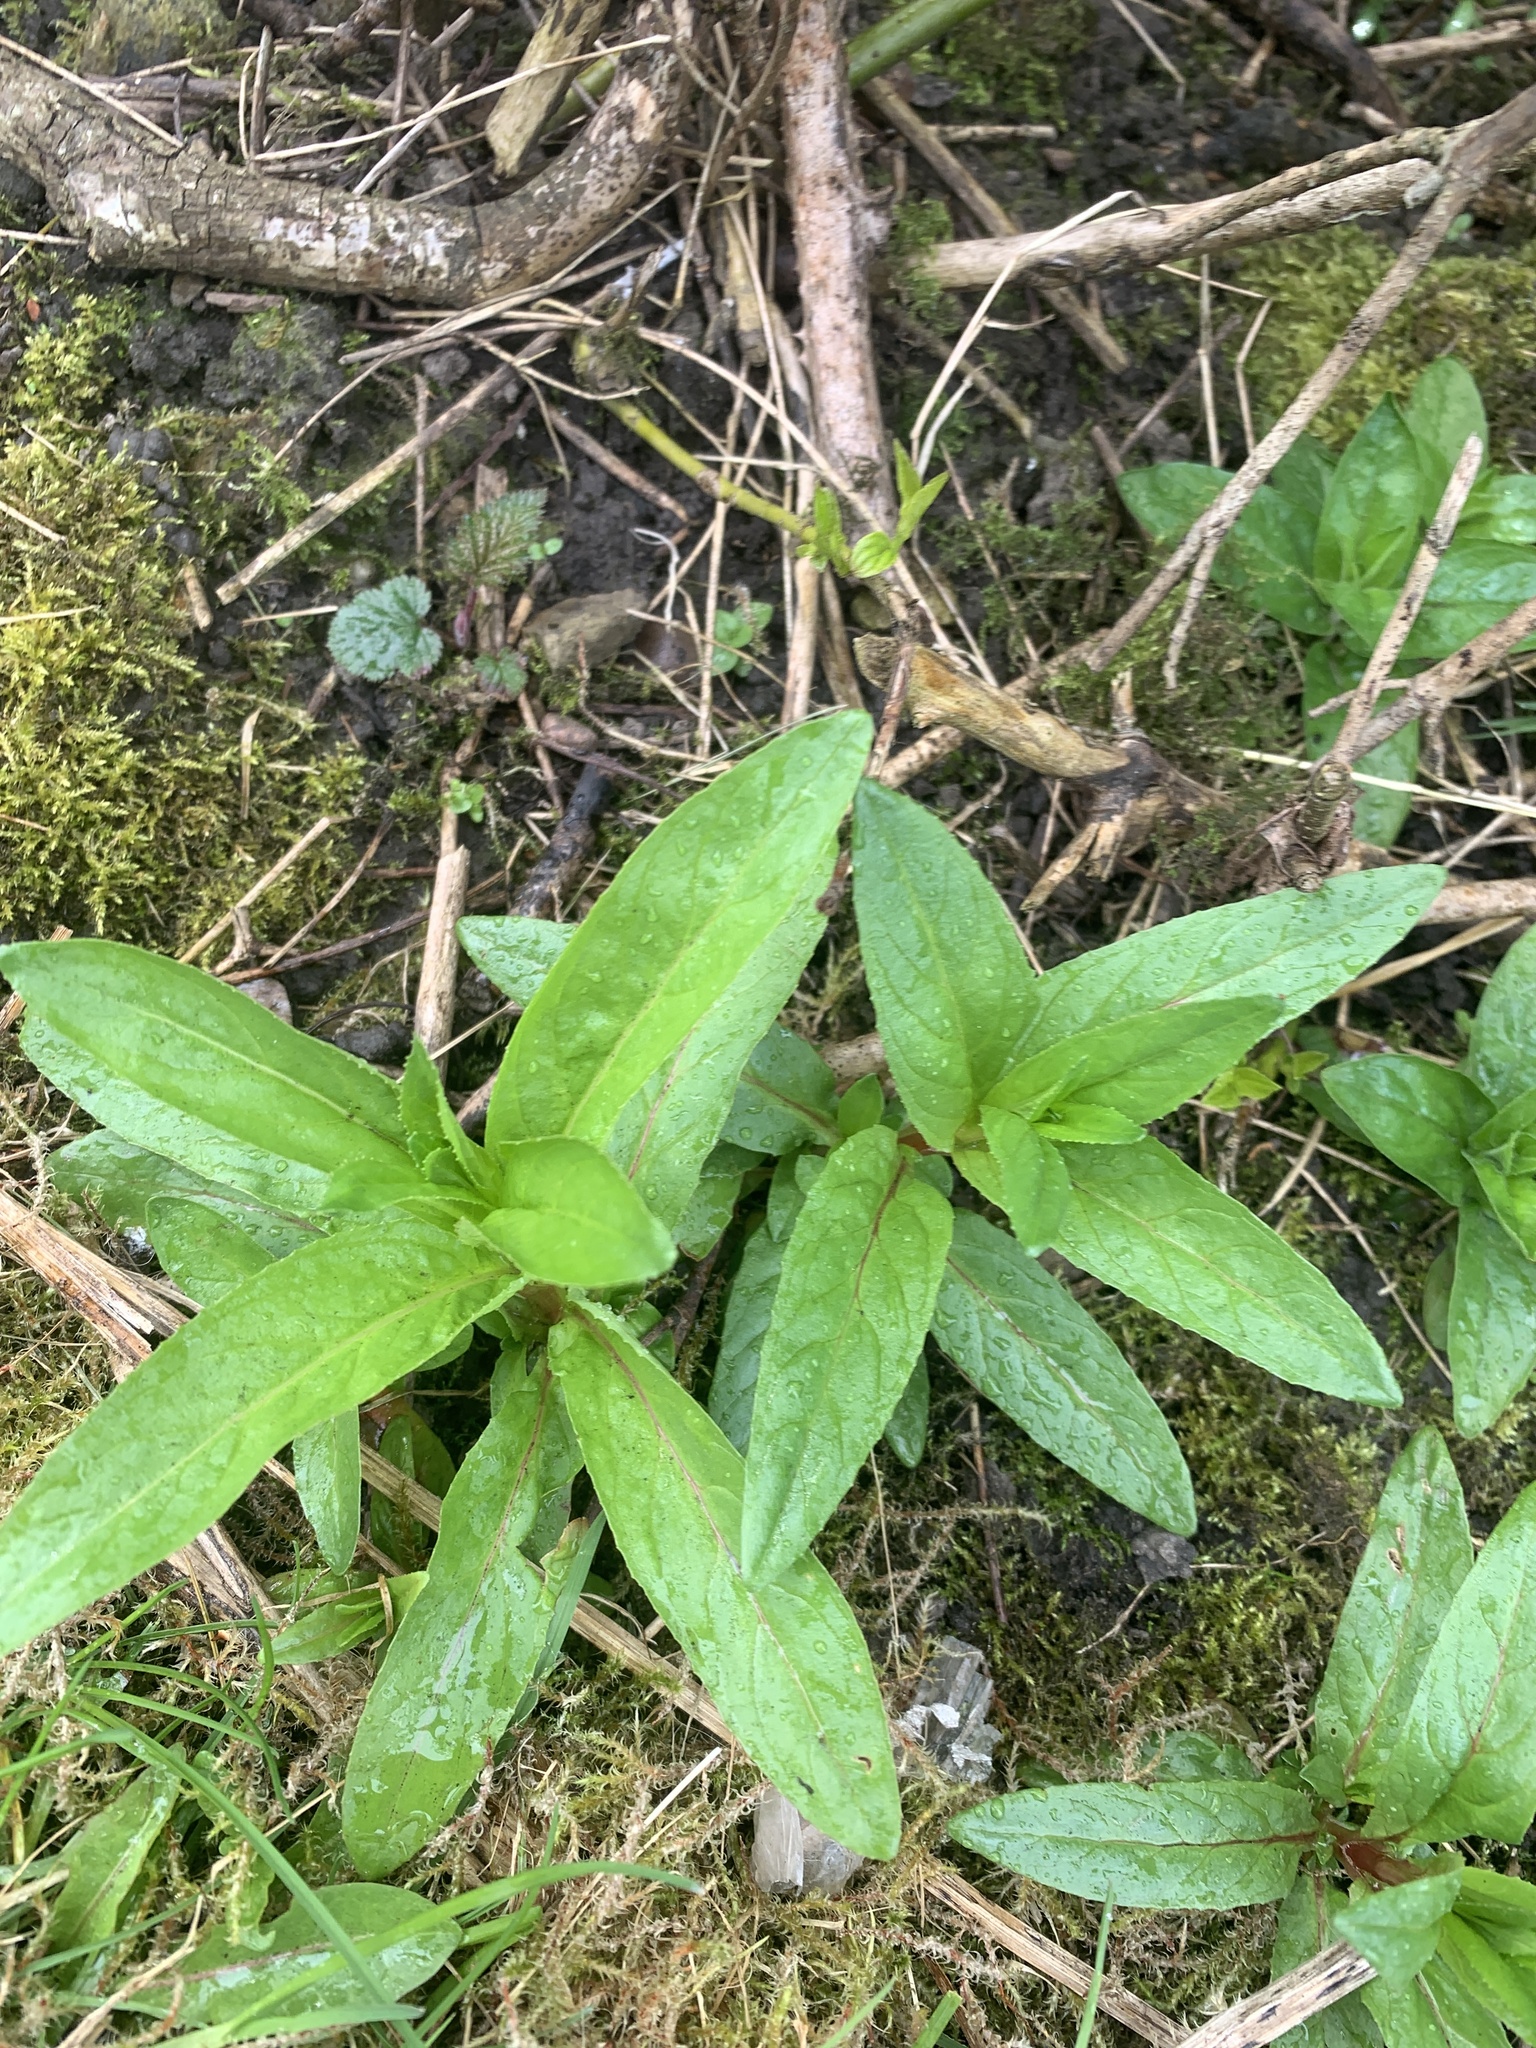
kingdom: Plantae
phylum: Tracheophyta
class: Magnoliopsida
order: Myrtales
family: Onagraceae
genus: Epilobium
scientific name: Epilobium ciliatum
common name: American willowherb
